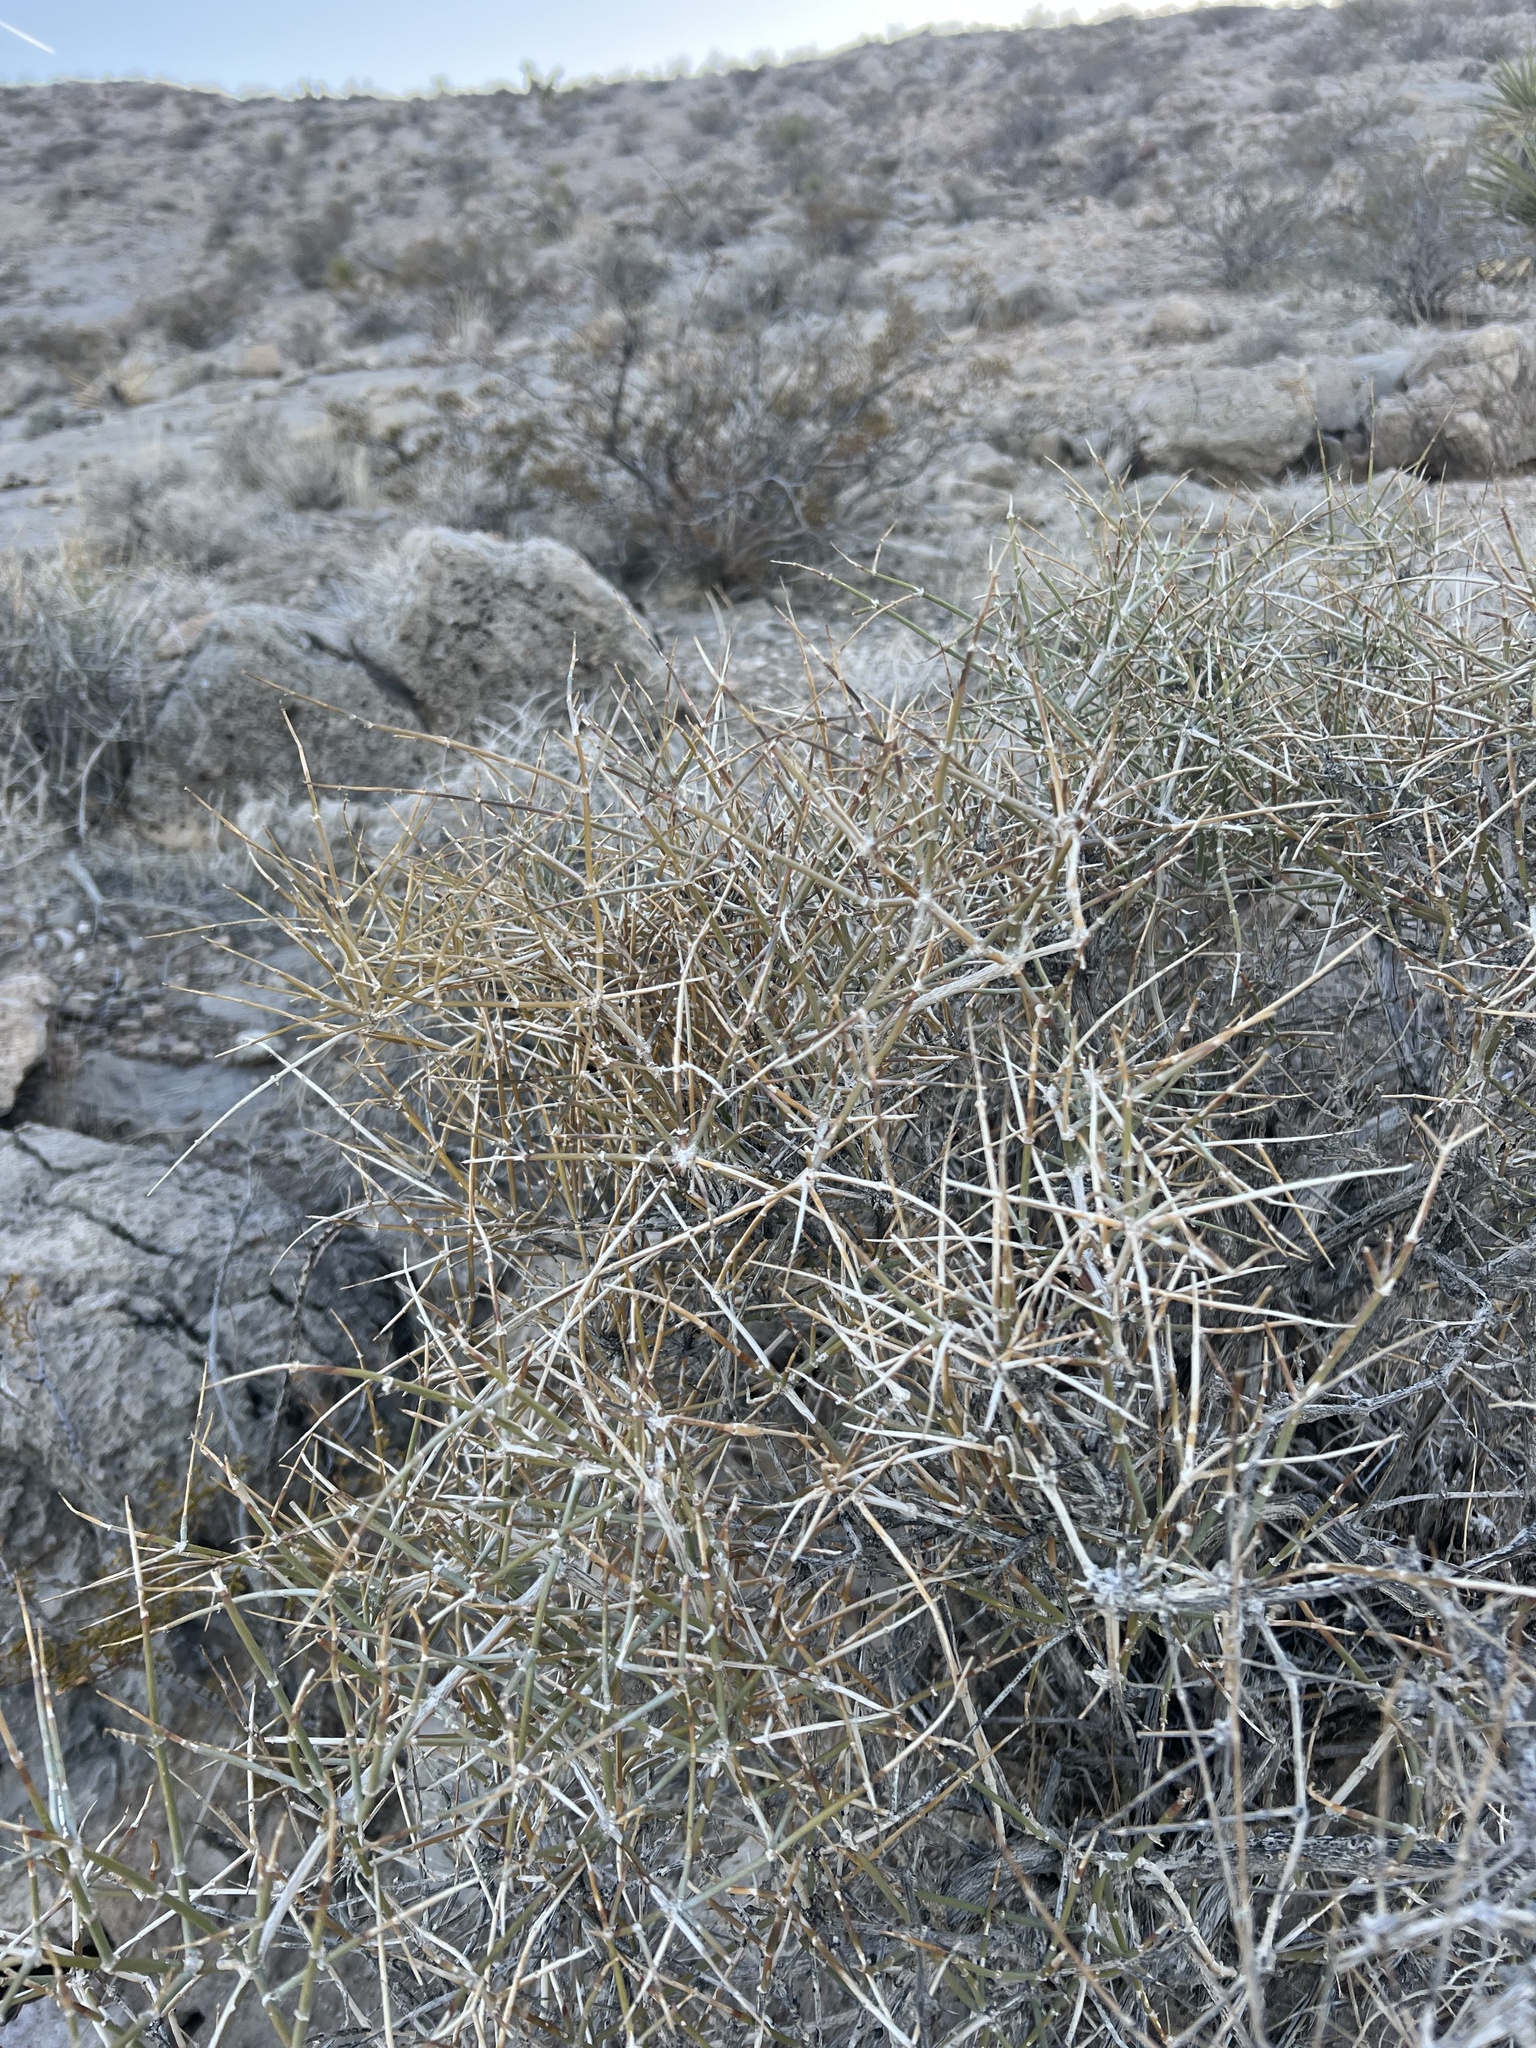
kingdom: Plantae
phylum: Tracheophyta
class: Gnetopsida
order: Ephedrales
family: Ephedraceae
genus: Ephedra
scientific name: Ephedra nevadensis
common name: Gray ephedra
